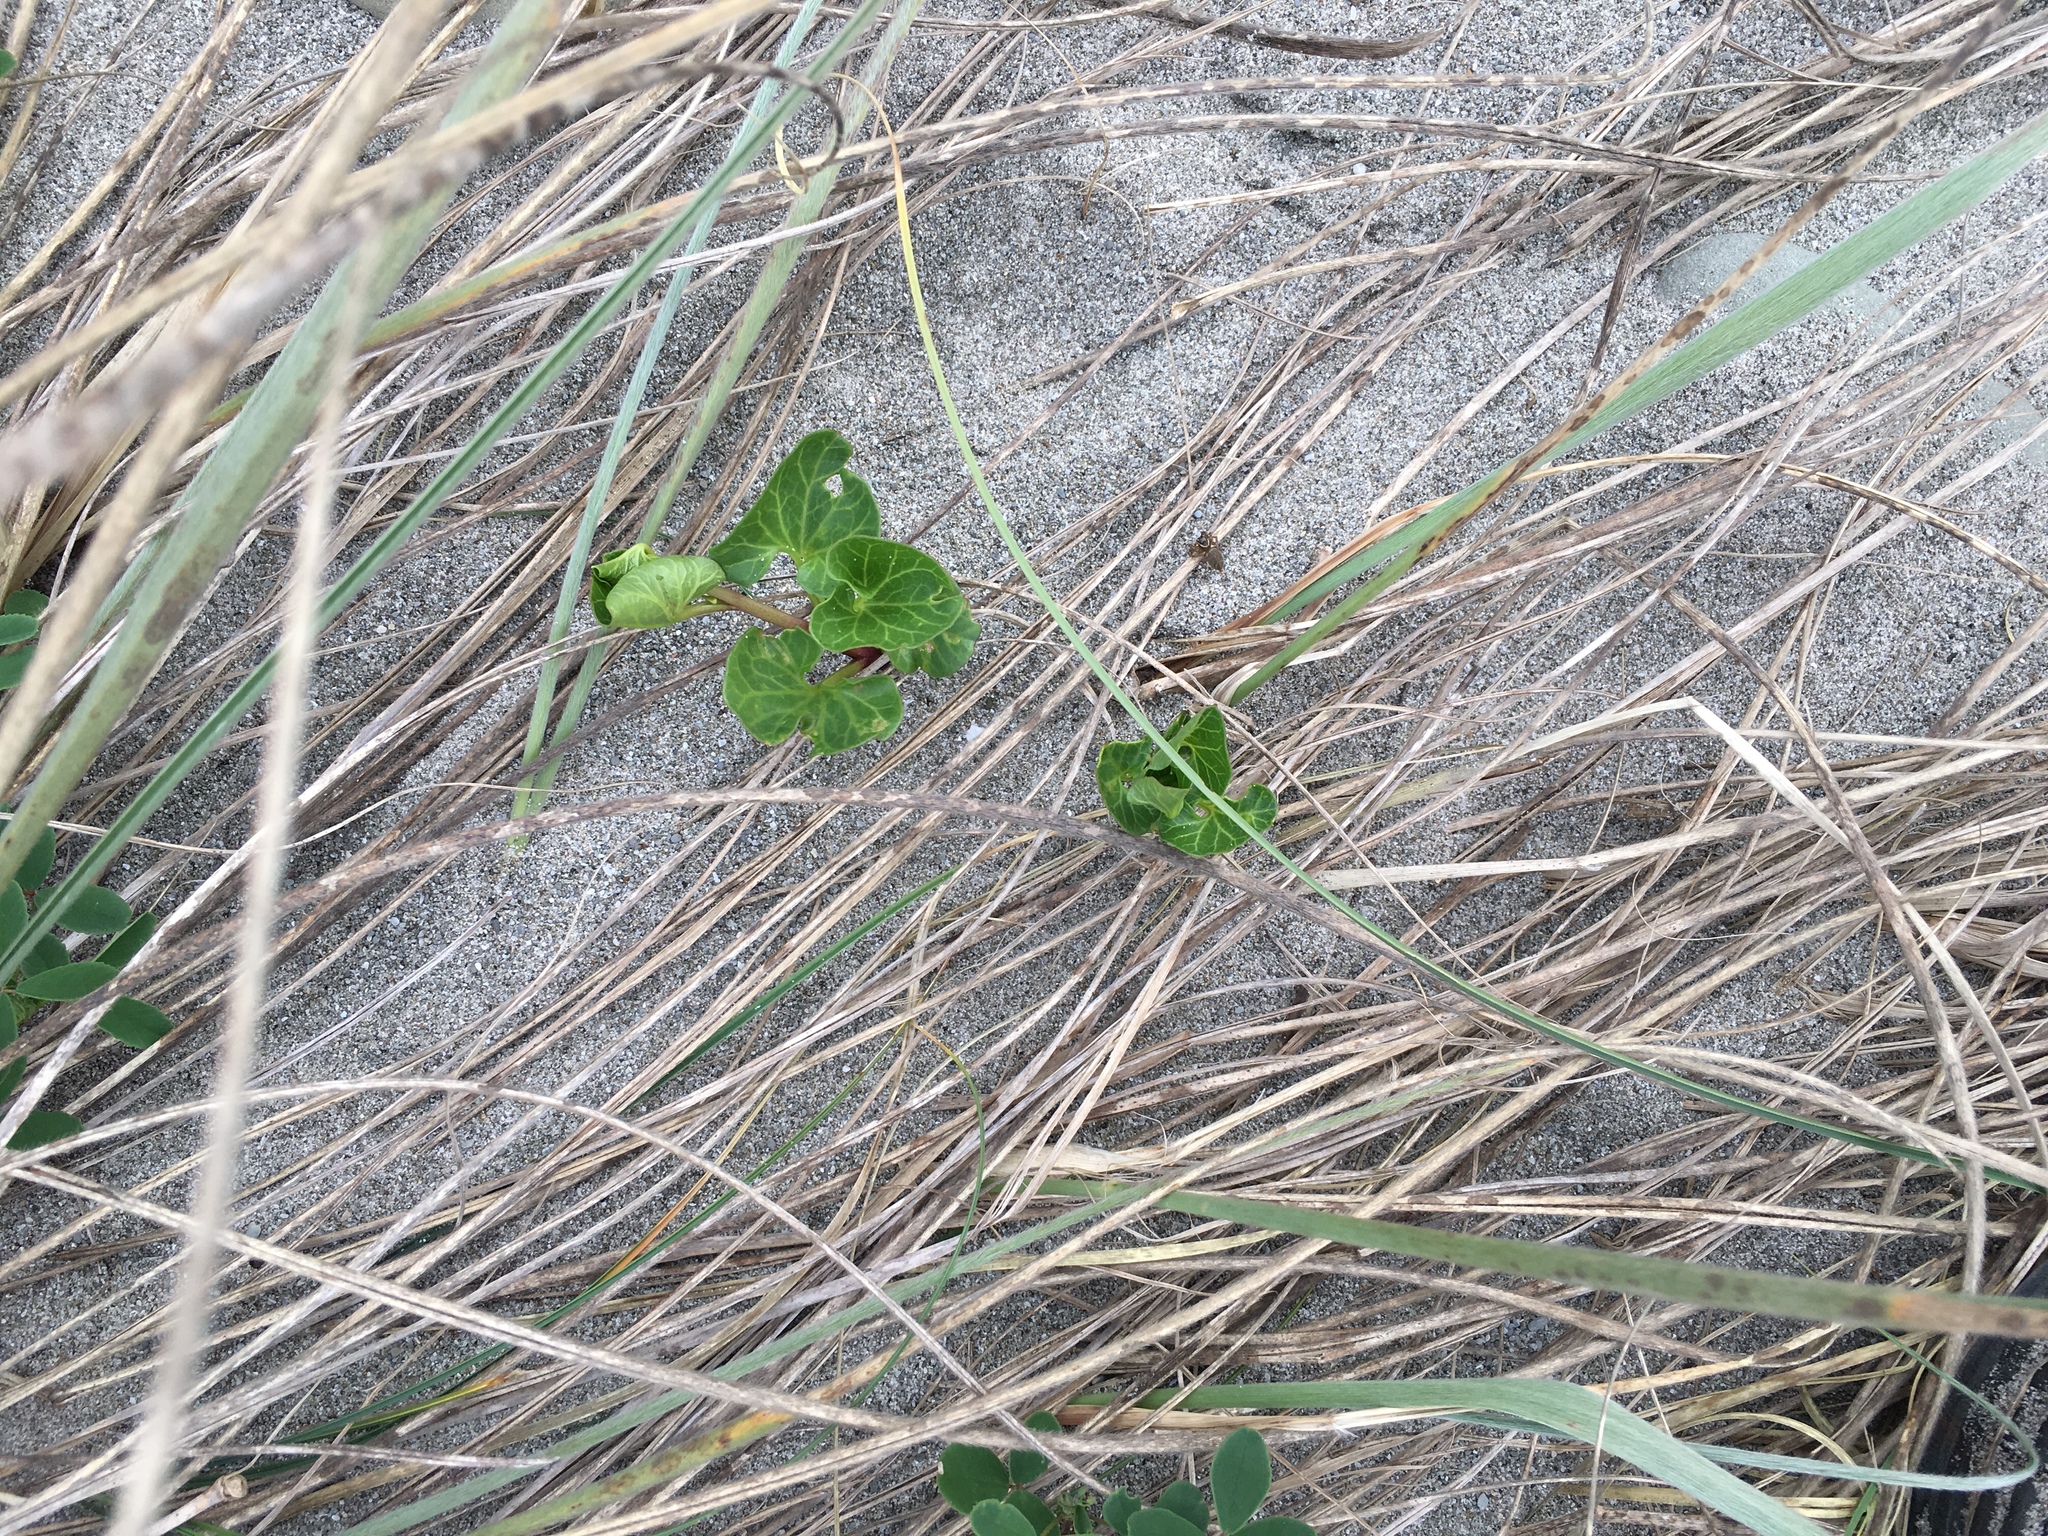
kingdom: Plantae
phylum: Tracheophyta
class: Magnoliopsida
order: Solanales
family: Convolvulaceae
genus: Calystegia
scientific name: Calystegia soldanella
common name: Sea bindweed
